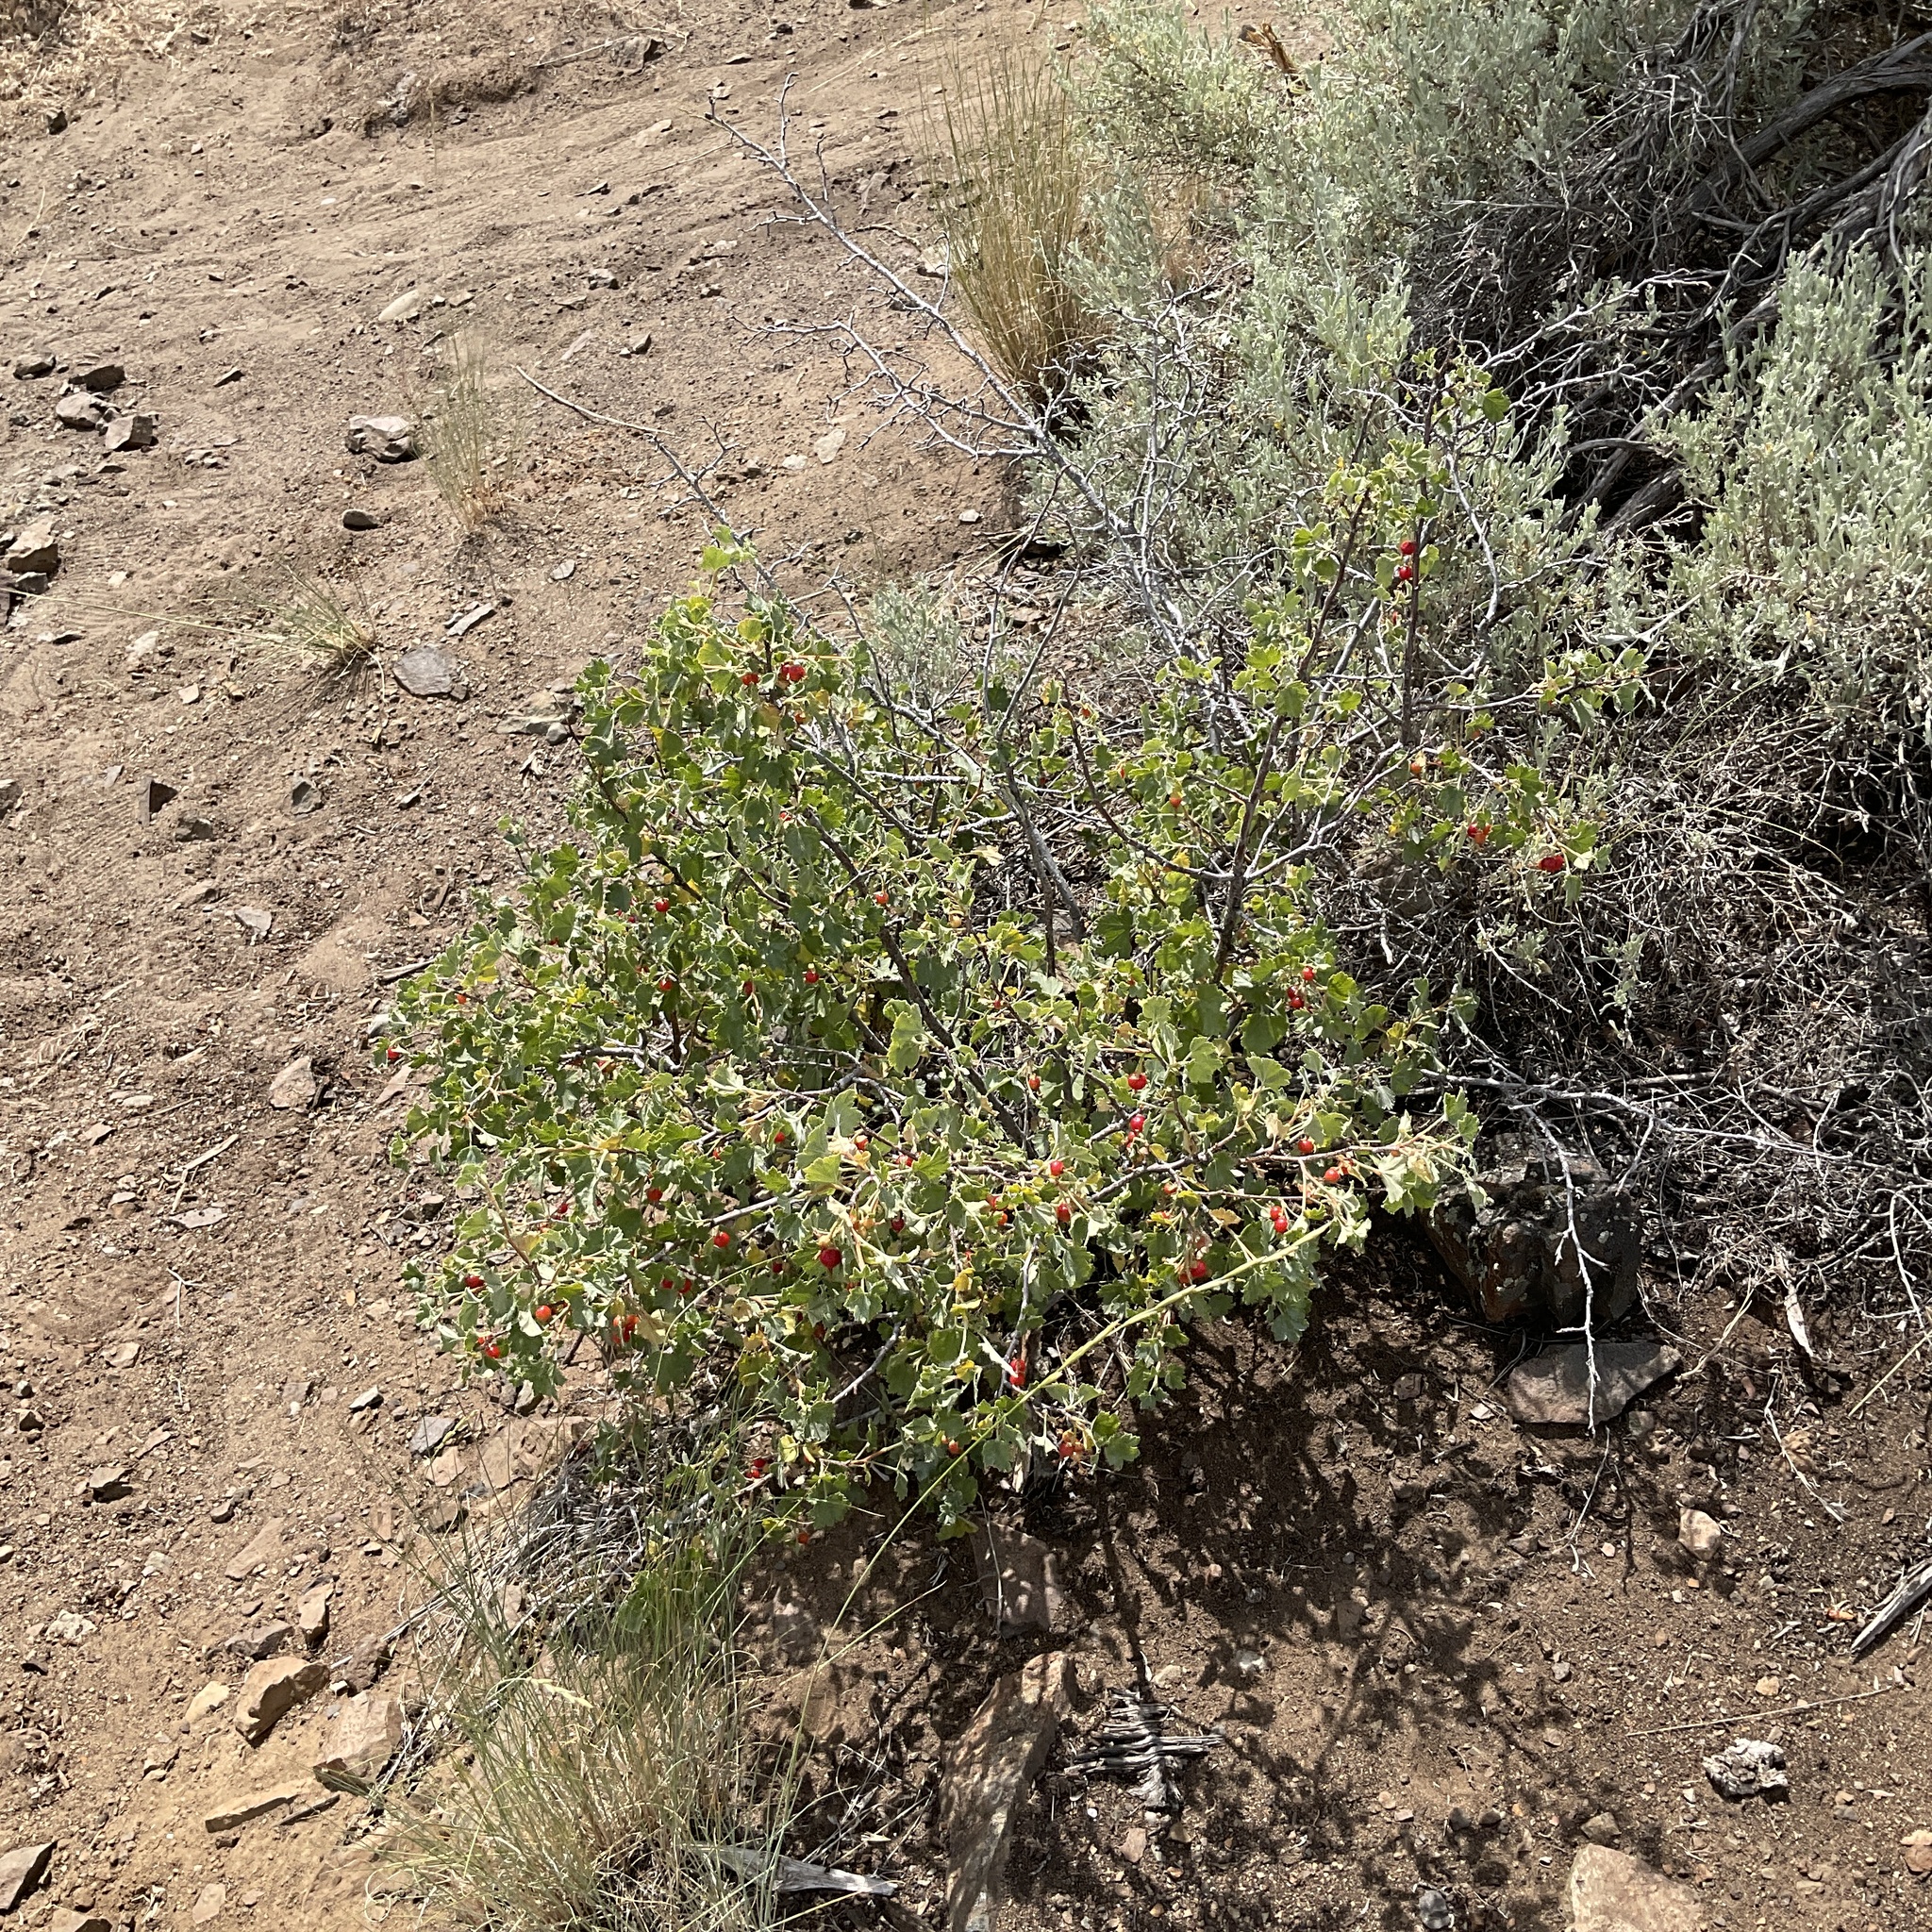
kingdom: Plantae
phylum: Tracheophyta
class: Magnoliopsida
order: Saxifragales
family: Grossulariaceae
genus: Ribes
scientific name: Ribes cereum
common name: Wax currant
